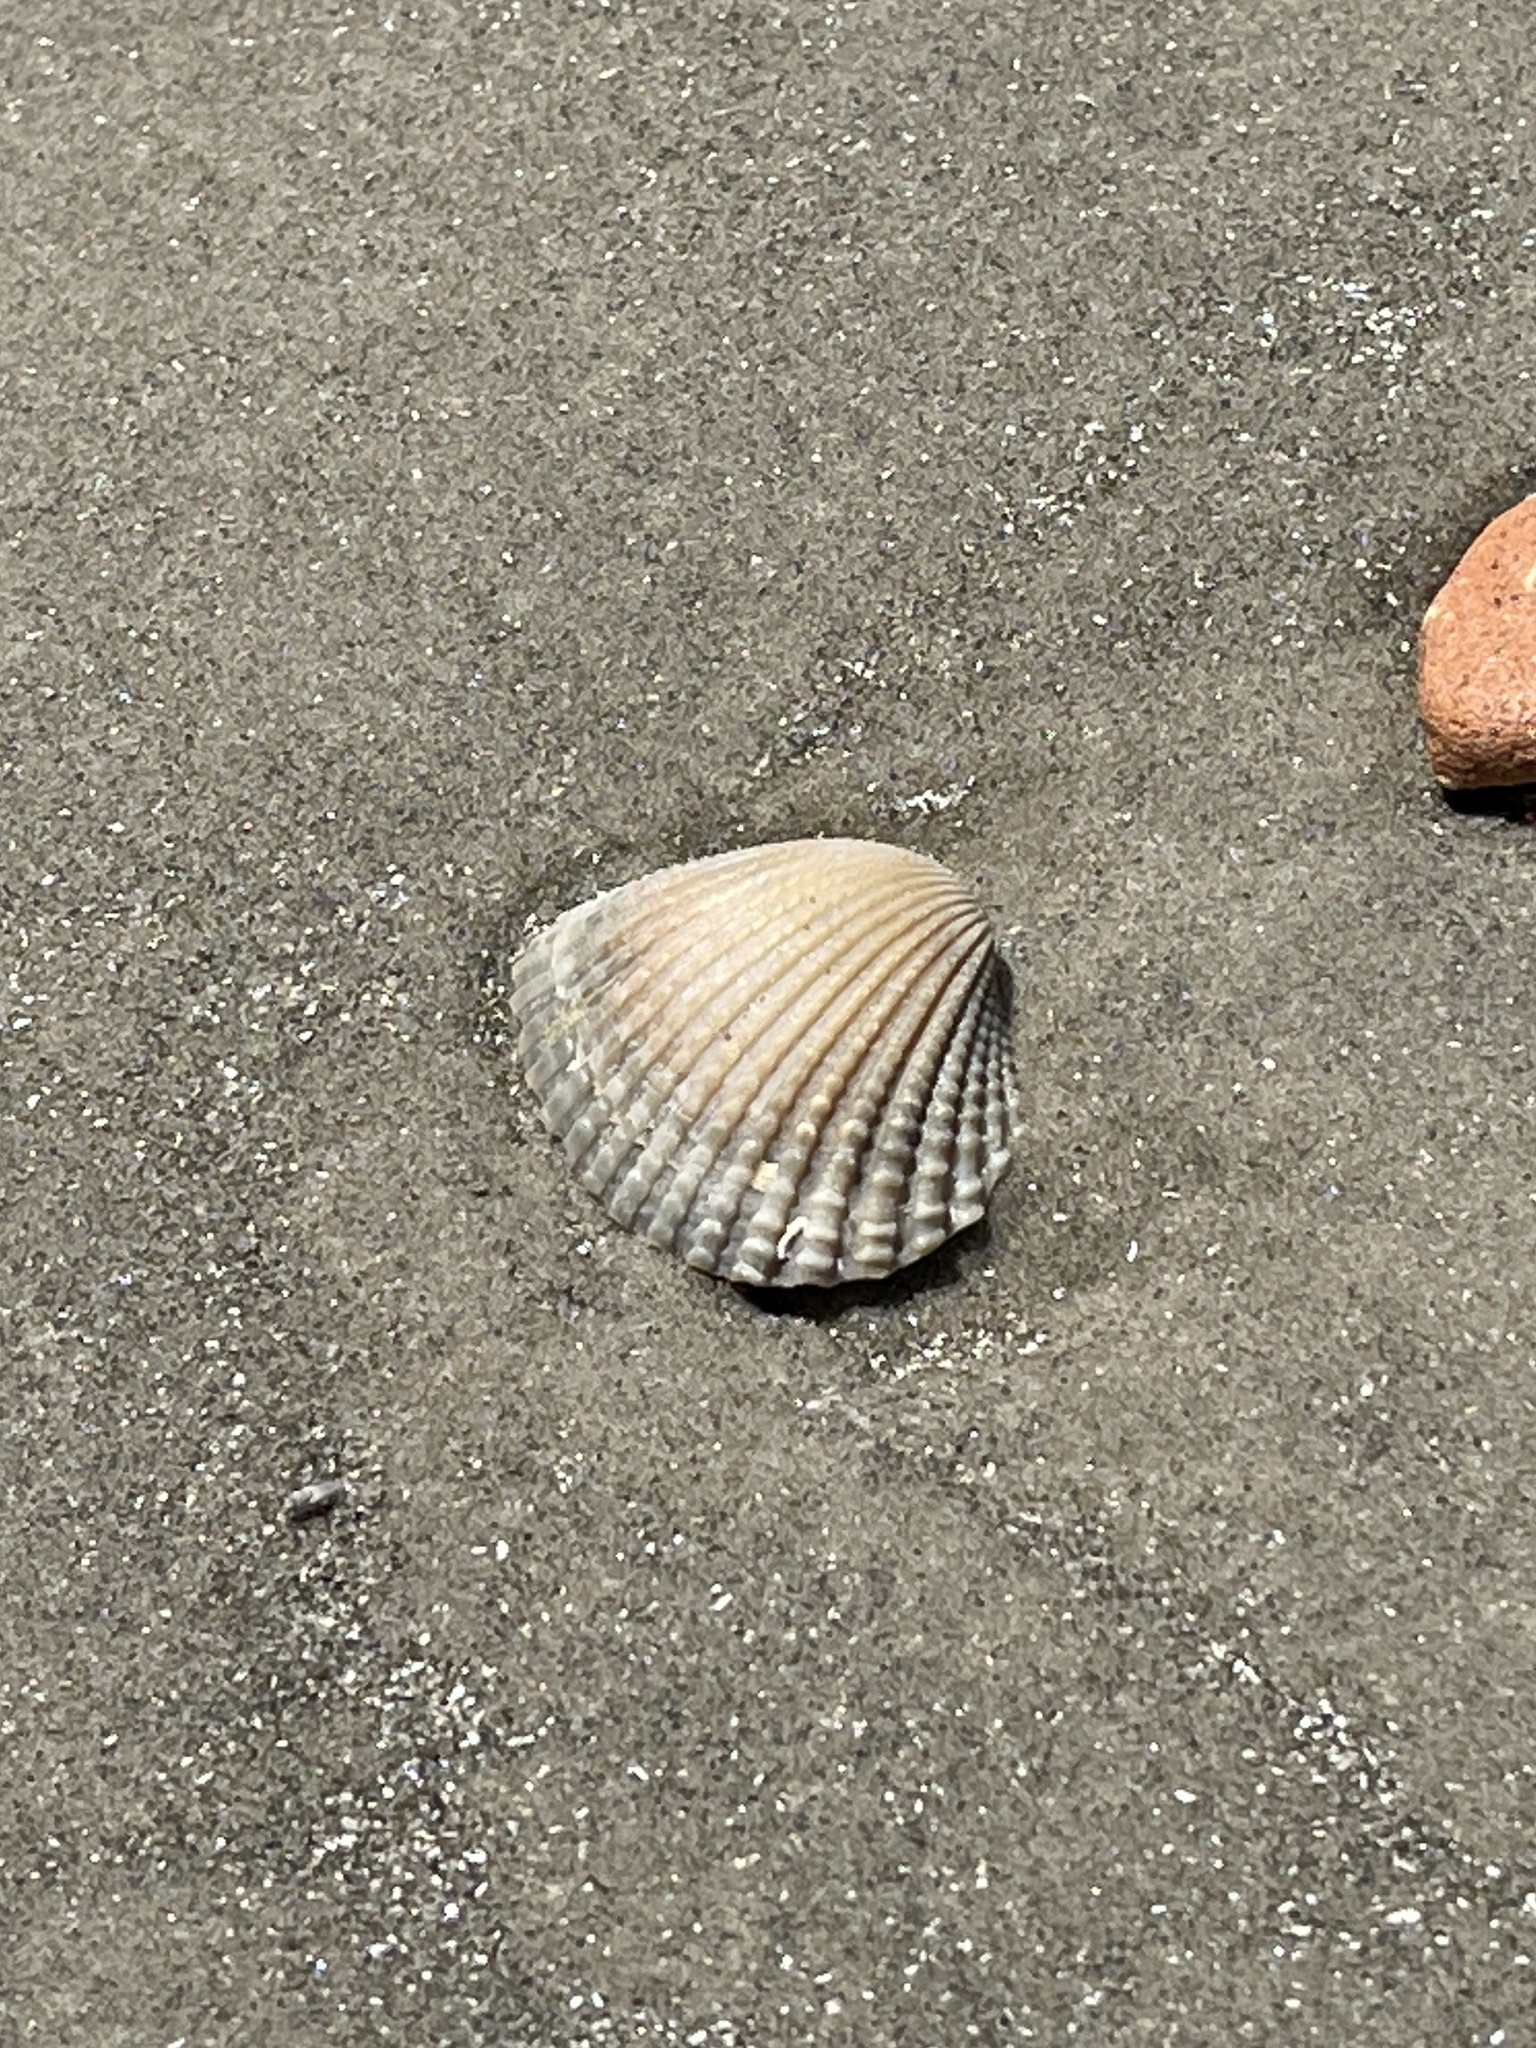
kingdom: Animalia
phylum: Mollusca
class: Bivalvia
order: Arcida
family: Arcidae
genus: Anadara
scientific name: Anadara brasiliana
